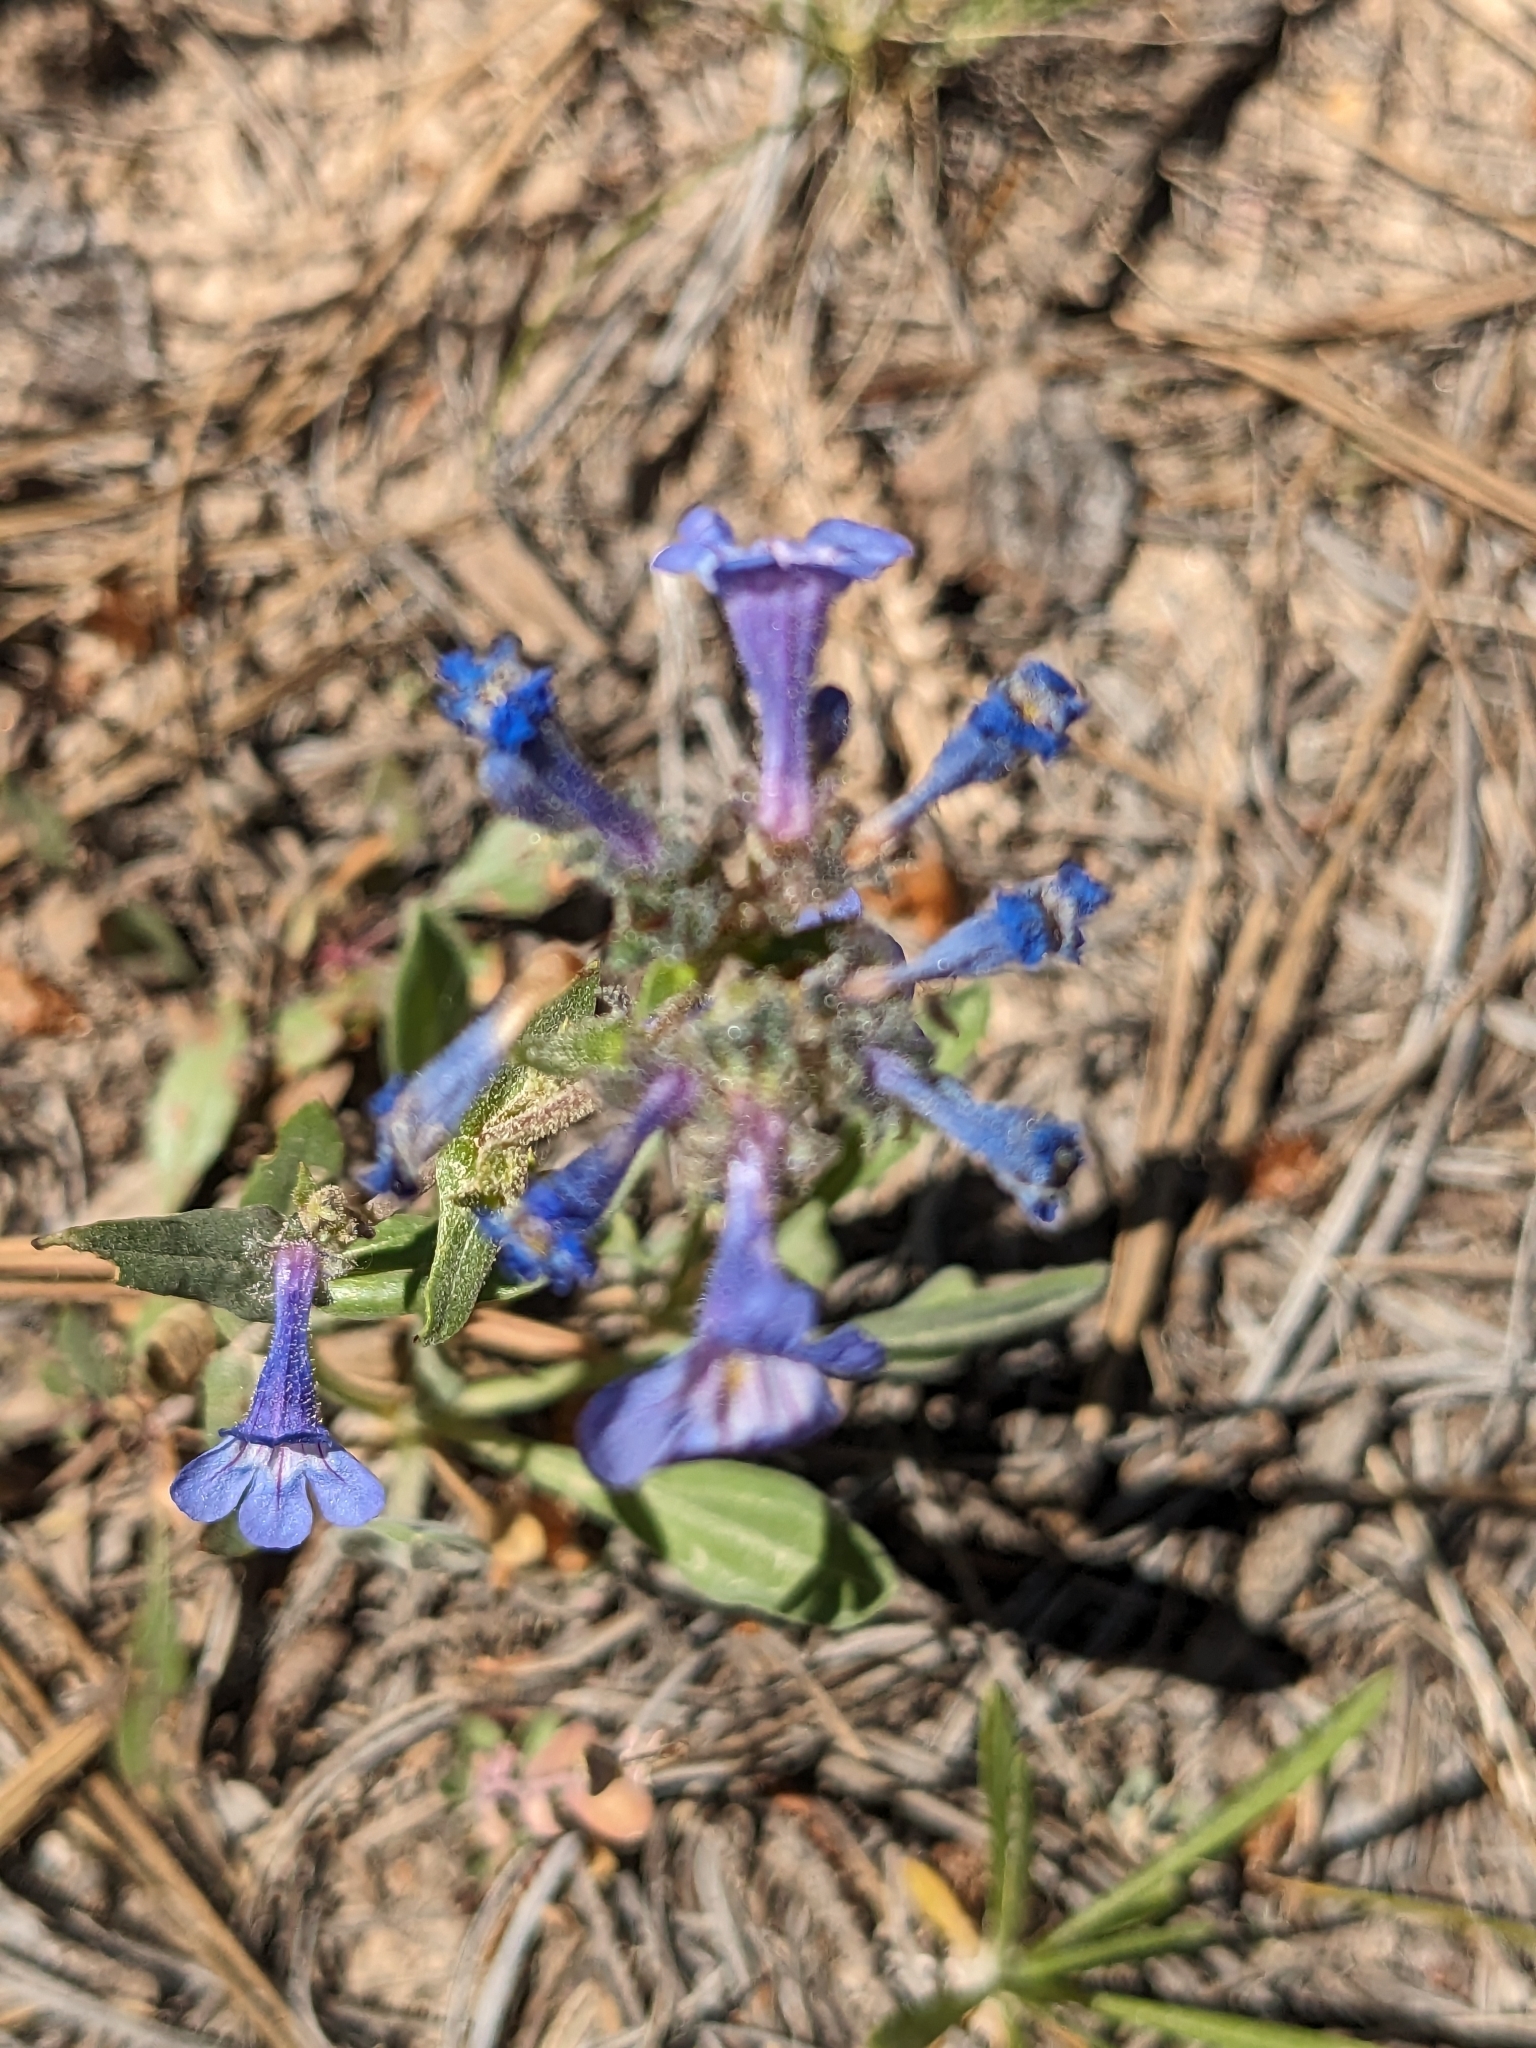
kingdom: Plantae
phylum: Tracheophyta
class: Magnoliopsida
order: Lamiales
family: Plantaginaceae
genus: Penstemon
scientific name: Penstemon humilis
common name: Low penstemon
